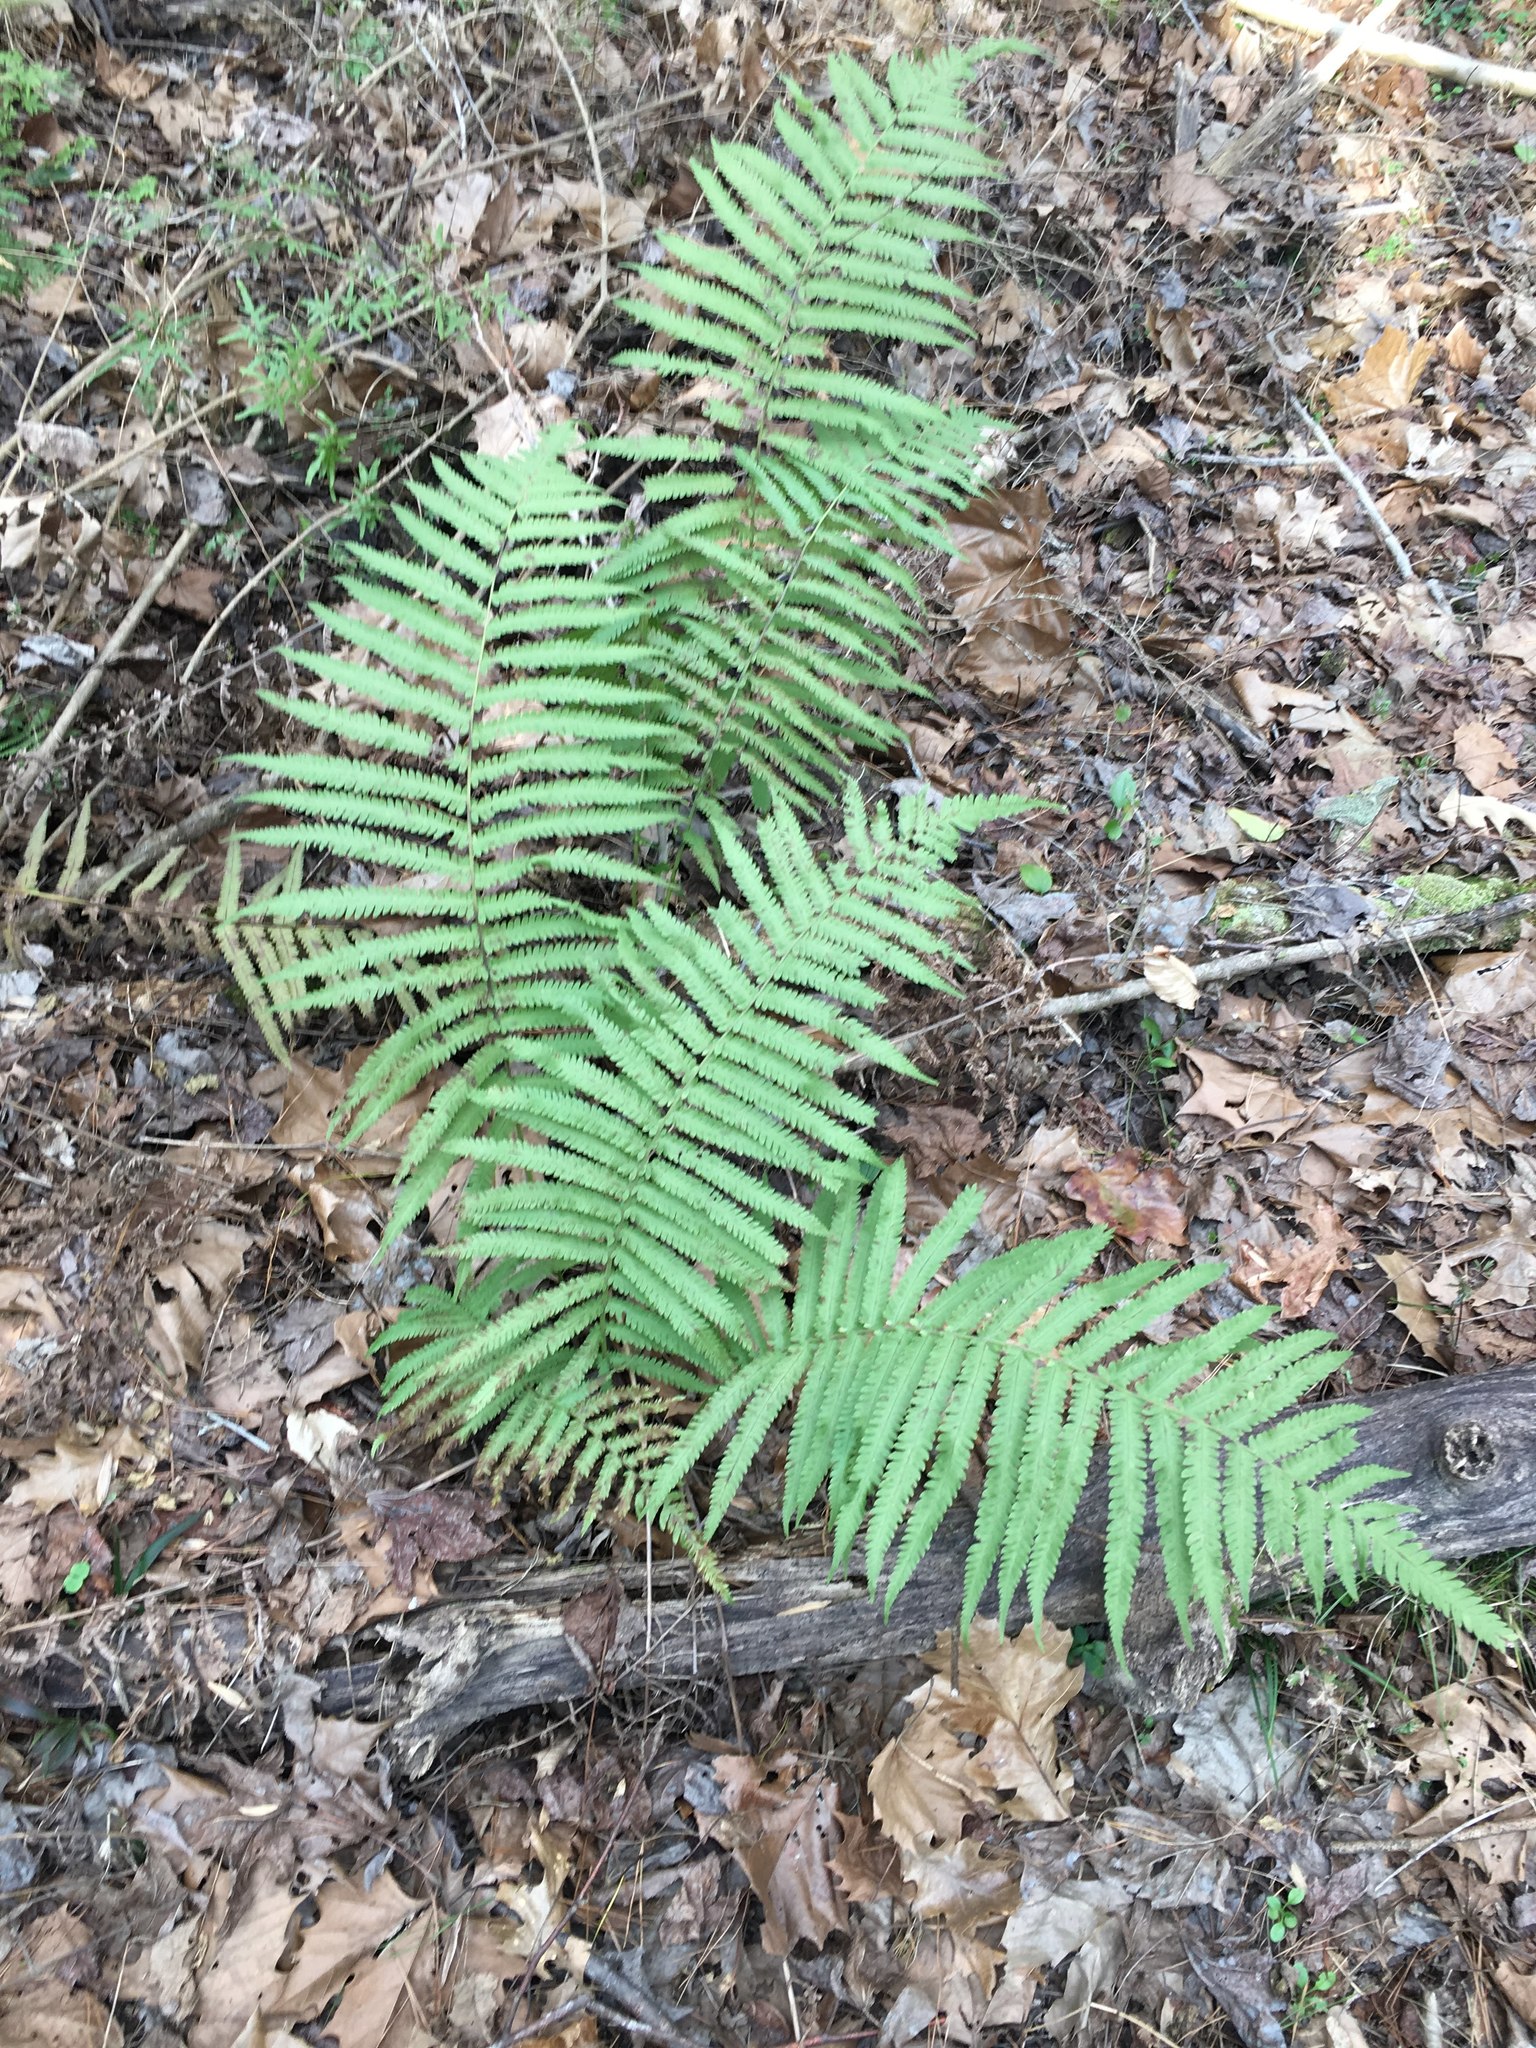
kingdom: Plantae
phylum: Tracheophyta
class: Polypodiopsida
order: Polypodiales
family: Thelypteridaceae
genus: Pelazoneuron
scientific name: Pelazoneuron kunthii
